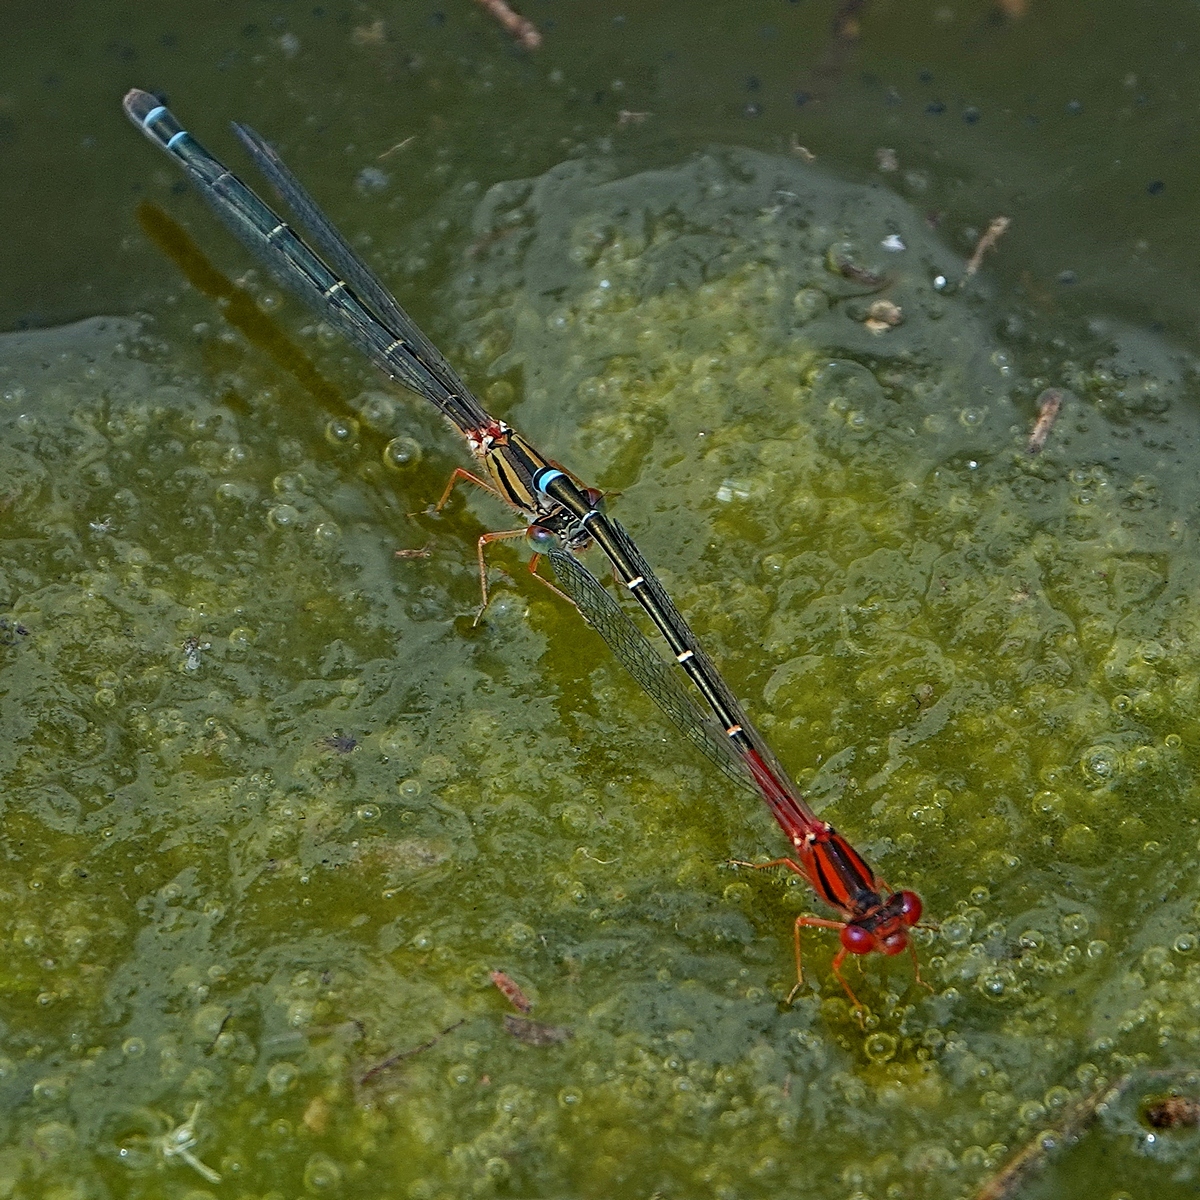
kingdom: Animalia
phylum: Arthropoda
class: Insecta
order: Odonata
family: Coenagrionidae
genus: Xanthagrion
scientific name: Xanthagrion erythroneurum
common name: Red and blue damsel
